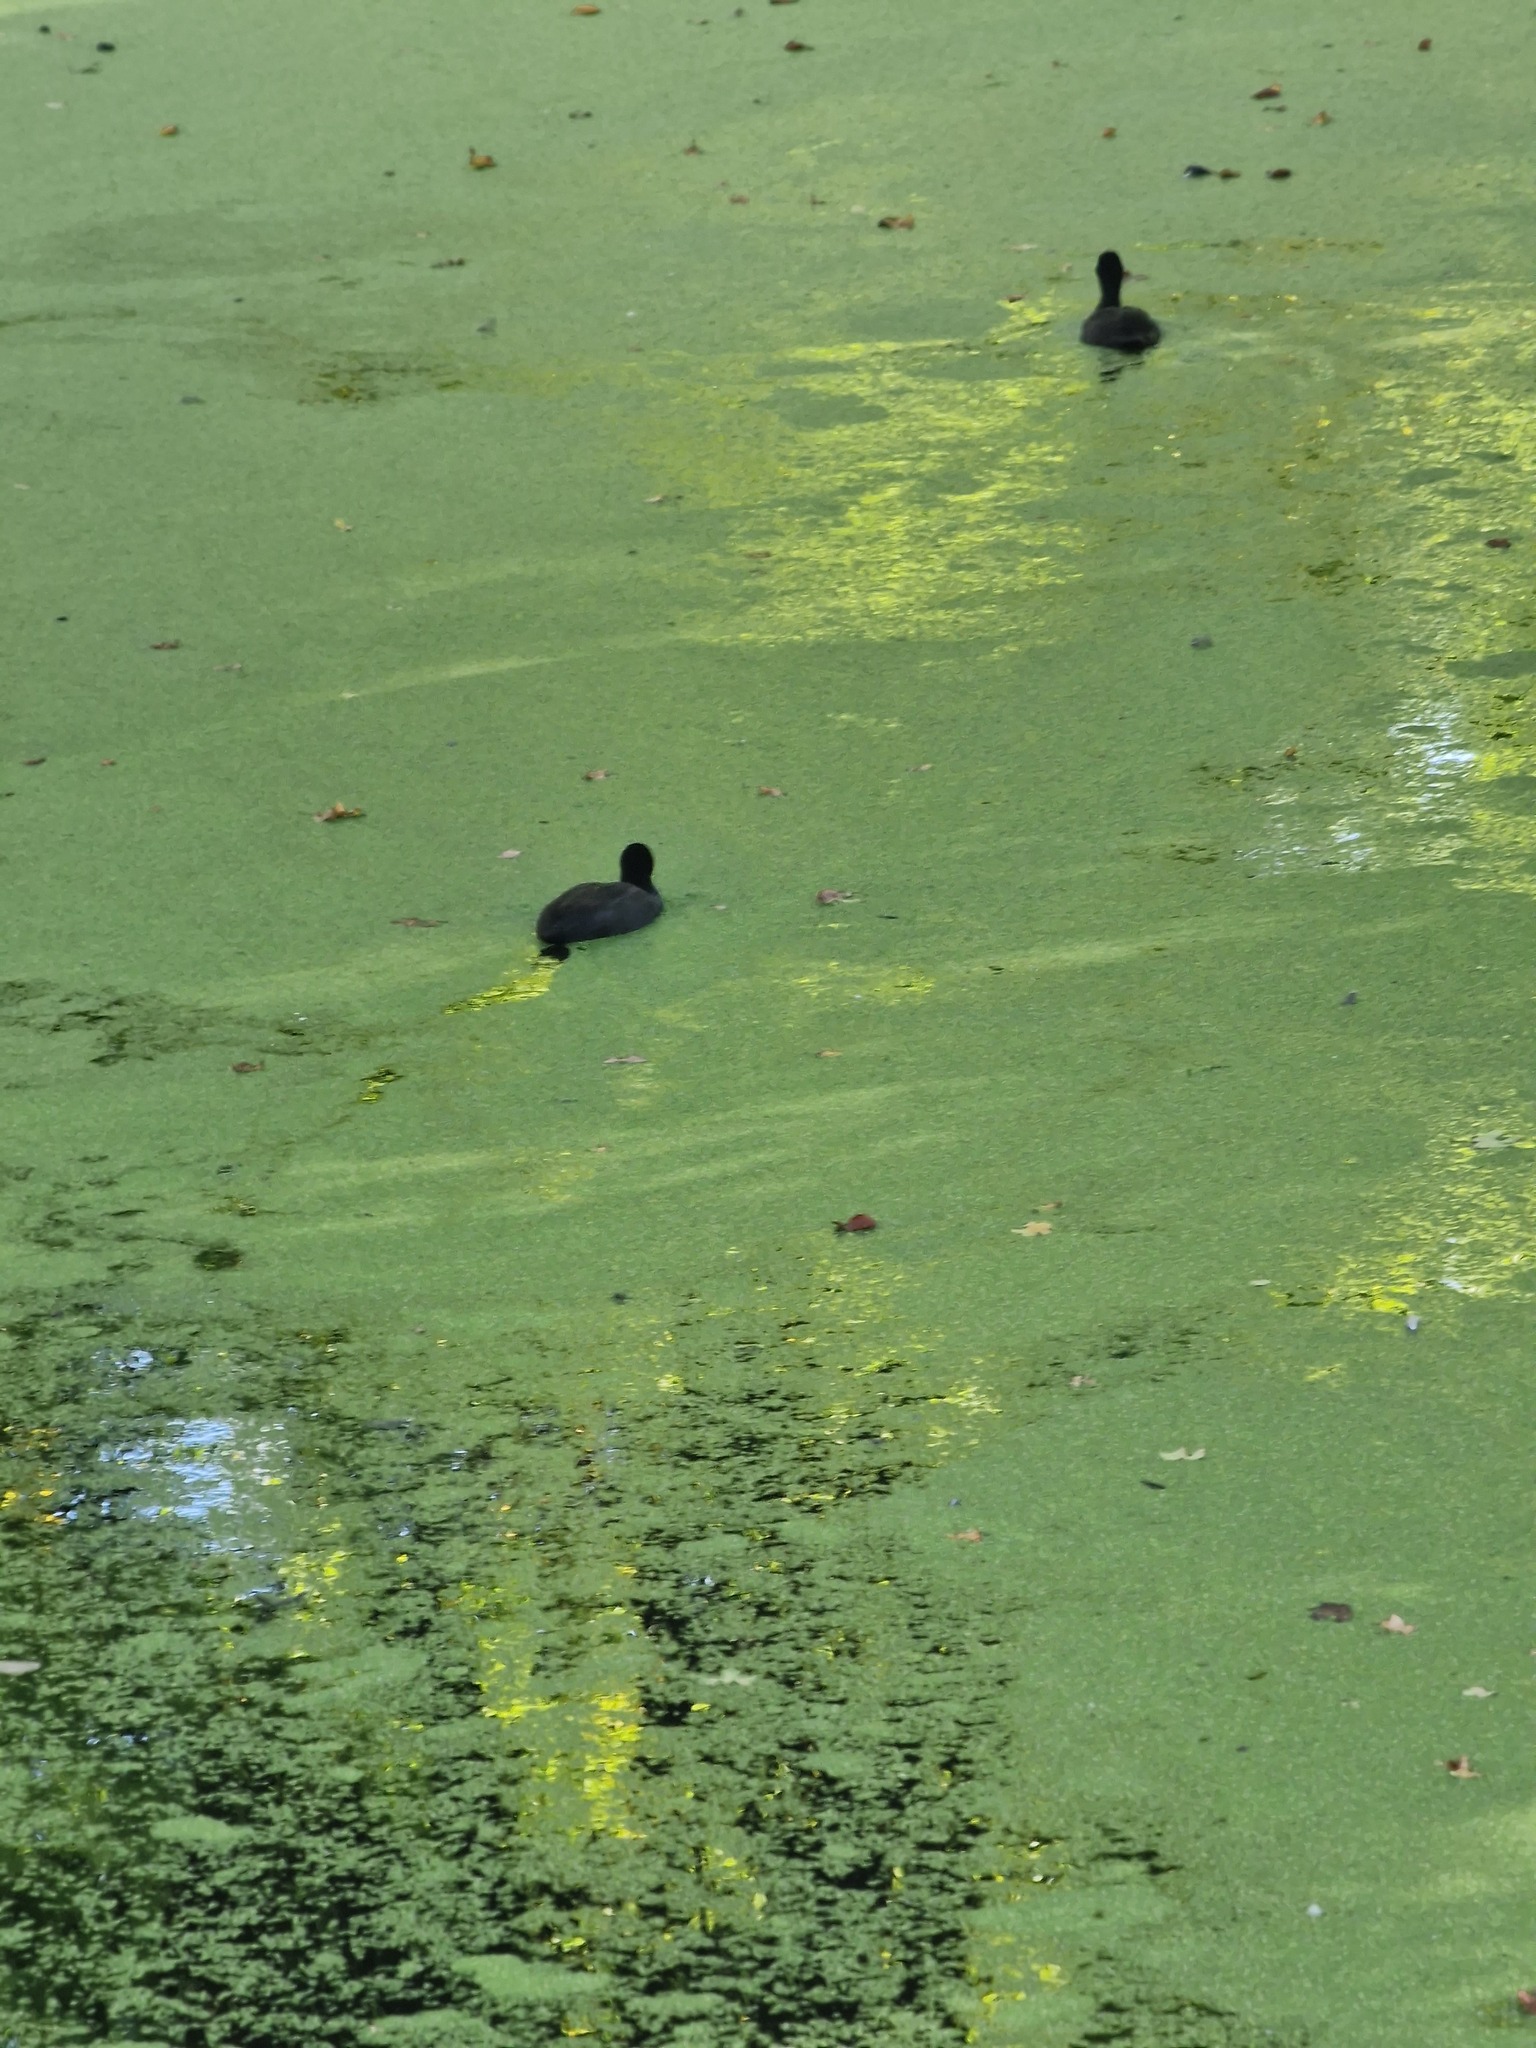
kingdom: Animalia
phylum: Chordata
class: Aves
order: Gruiformes
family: Rallidae
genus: Fulica
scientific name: Fulica atra
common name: Eurasian coot
